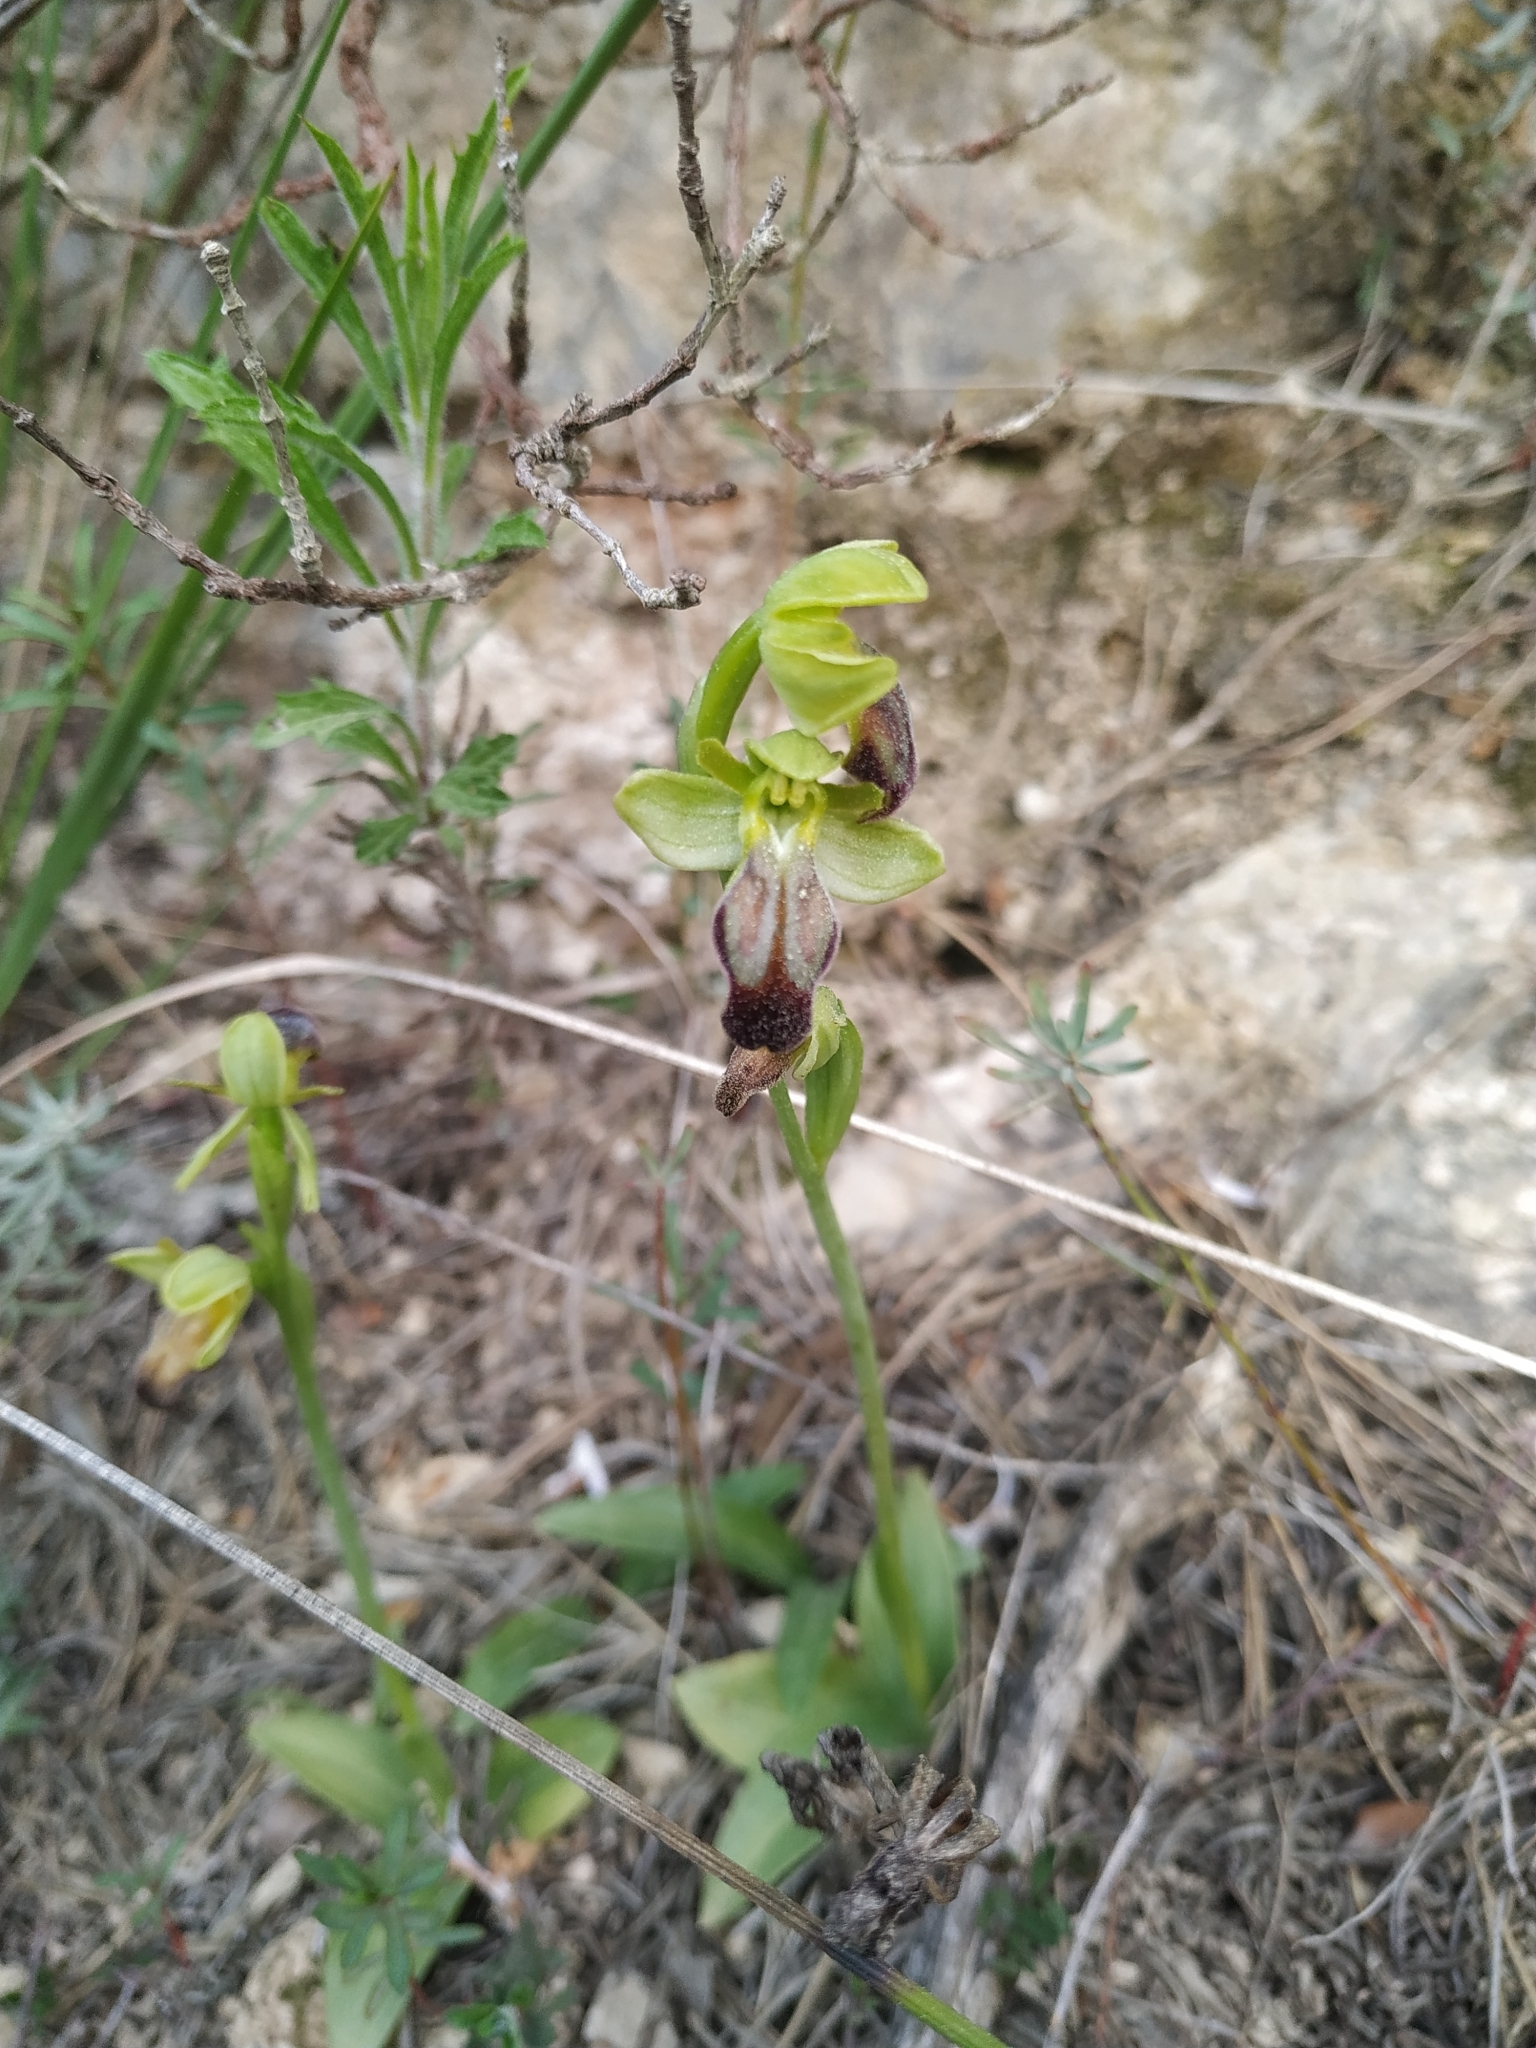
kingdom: Plantae
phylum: Tracheophyta
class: Liliopsida
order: Asparagales
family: Orchidaceae
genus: Ophrys
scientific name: Ophrys fusca
